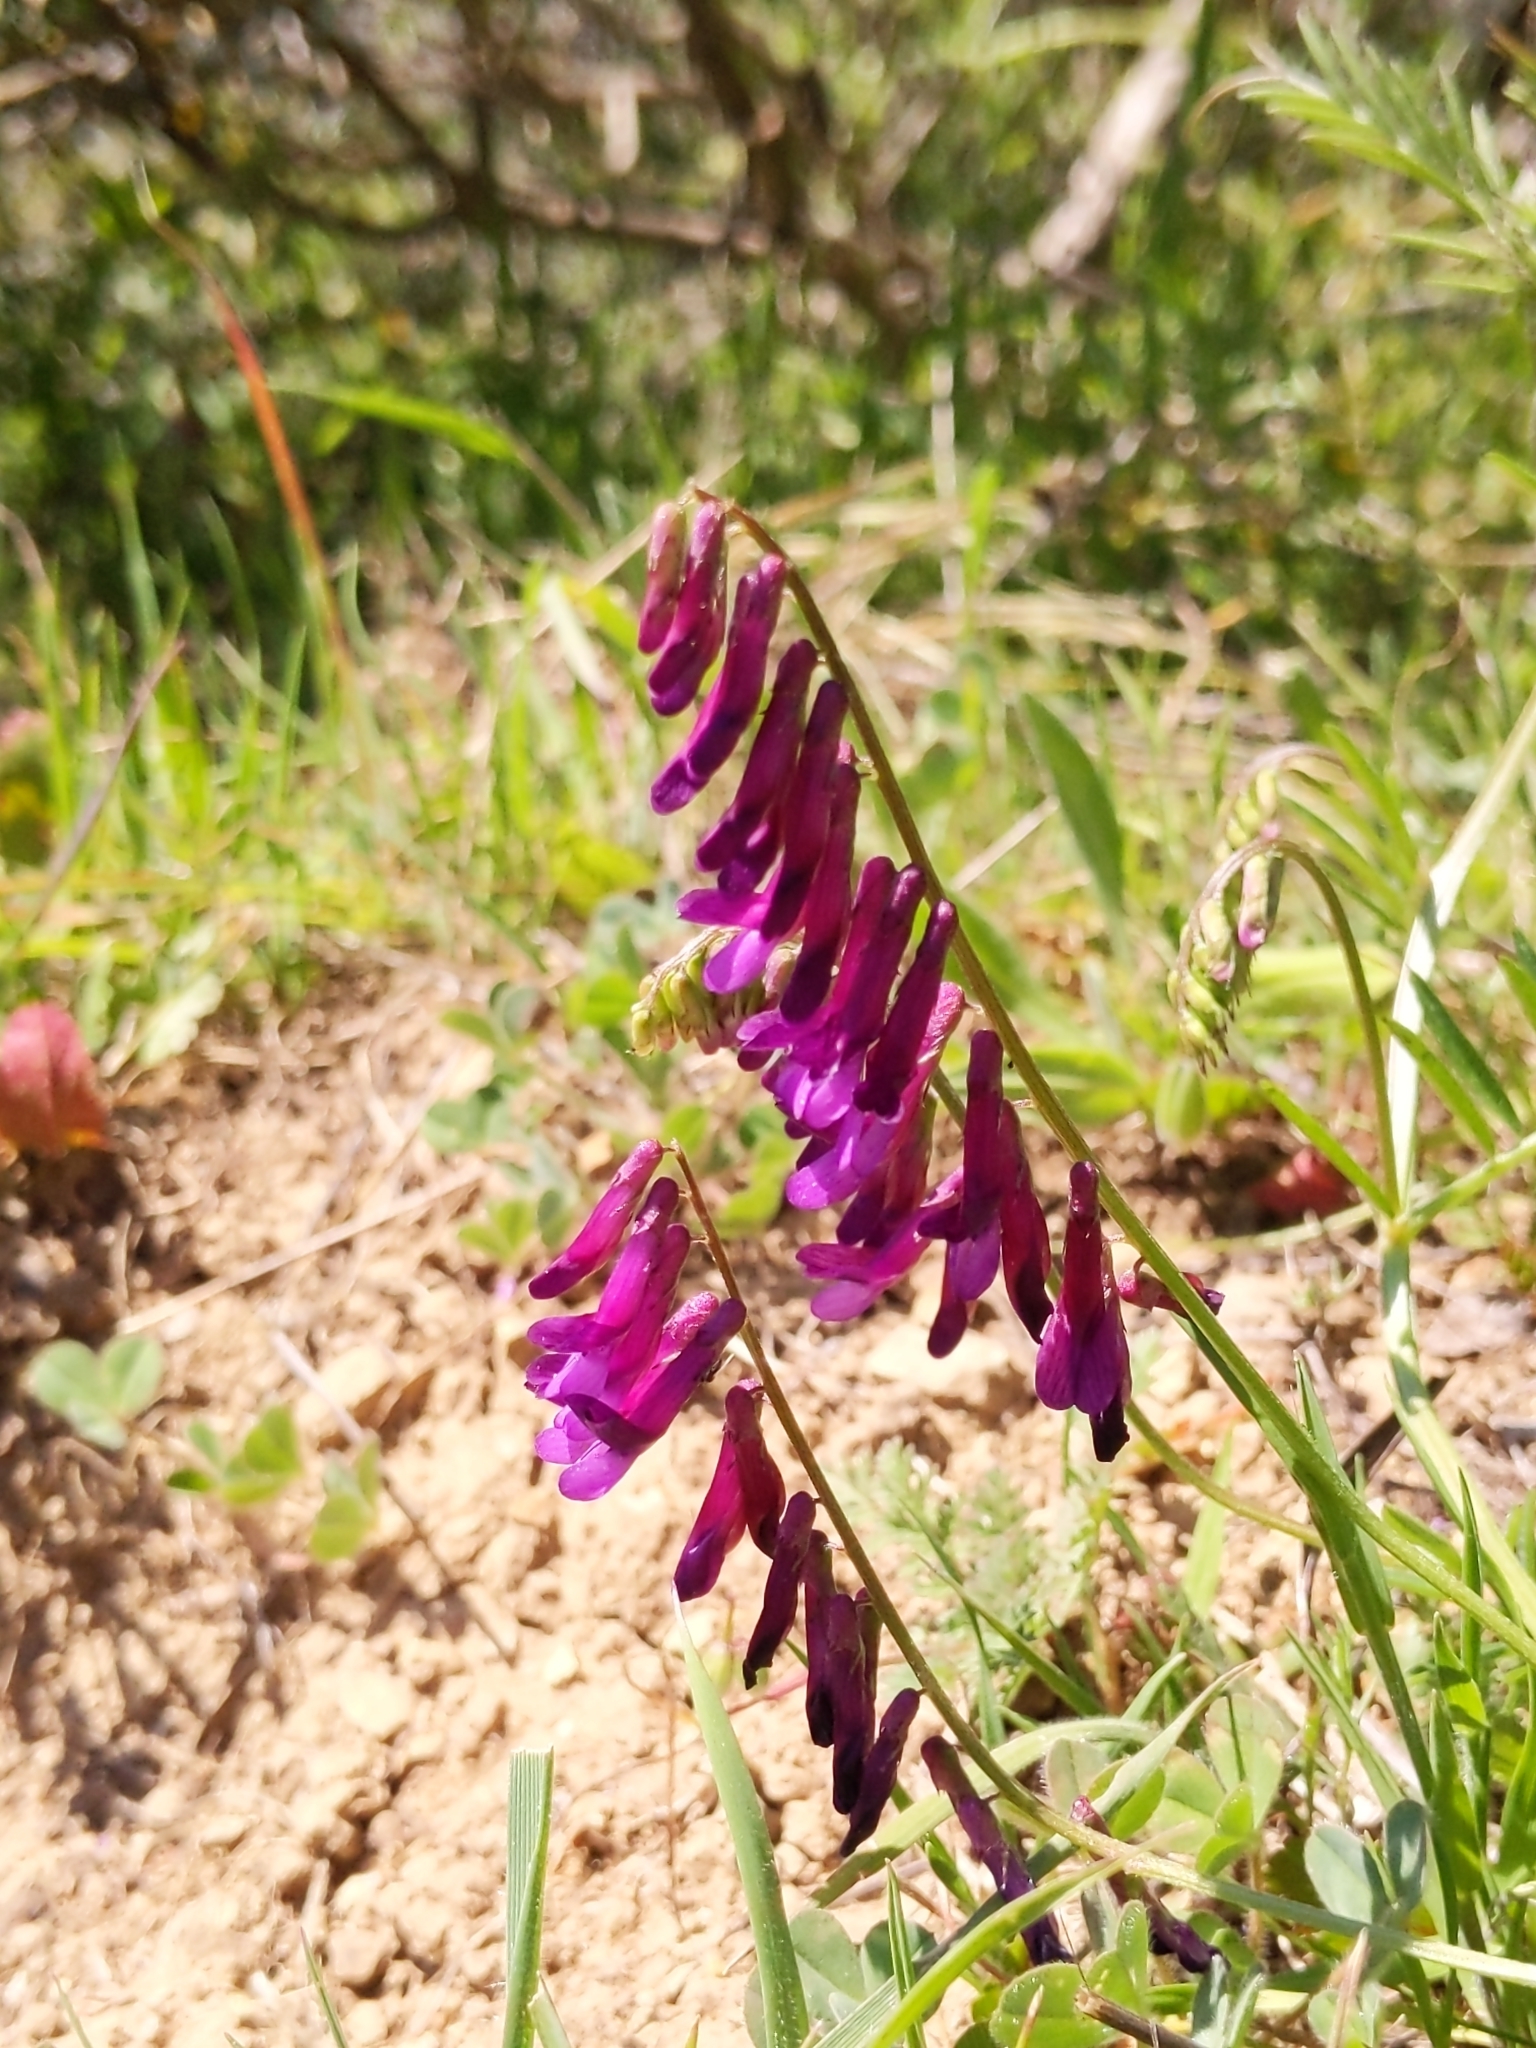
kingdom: Plantae
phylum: Tracheophyta
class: Magnoliopsida
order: Fabales
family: Fabaceae
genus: Vicia
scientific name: Vicia villosa
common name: Fodder vetch
